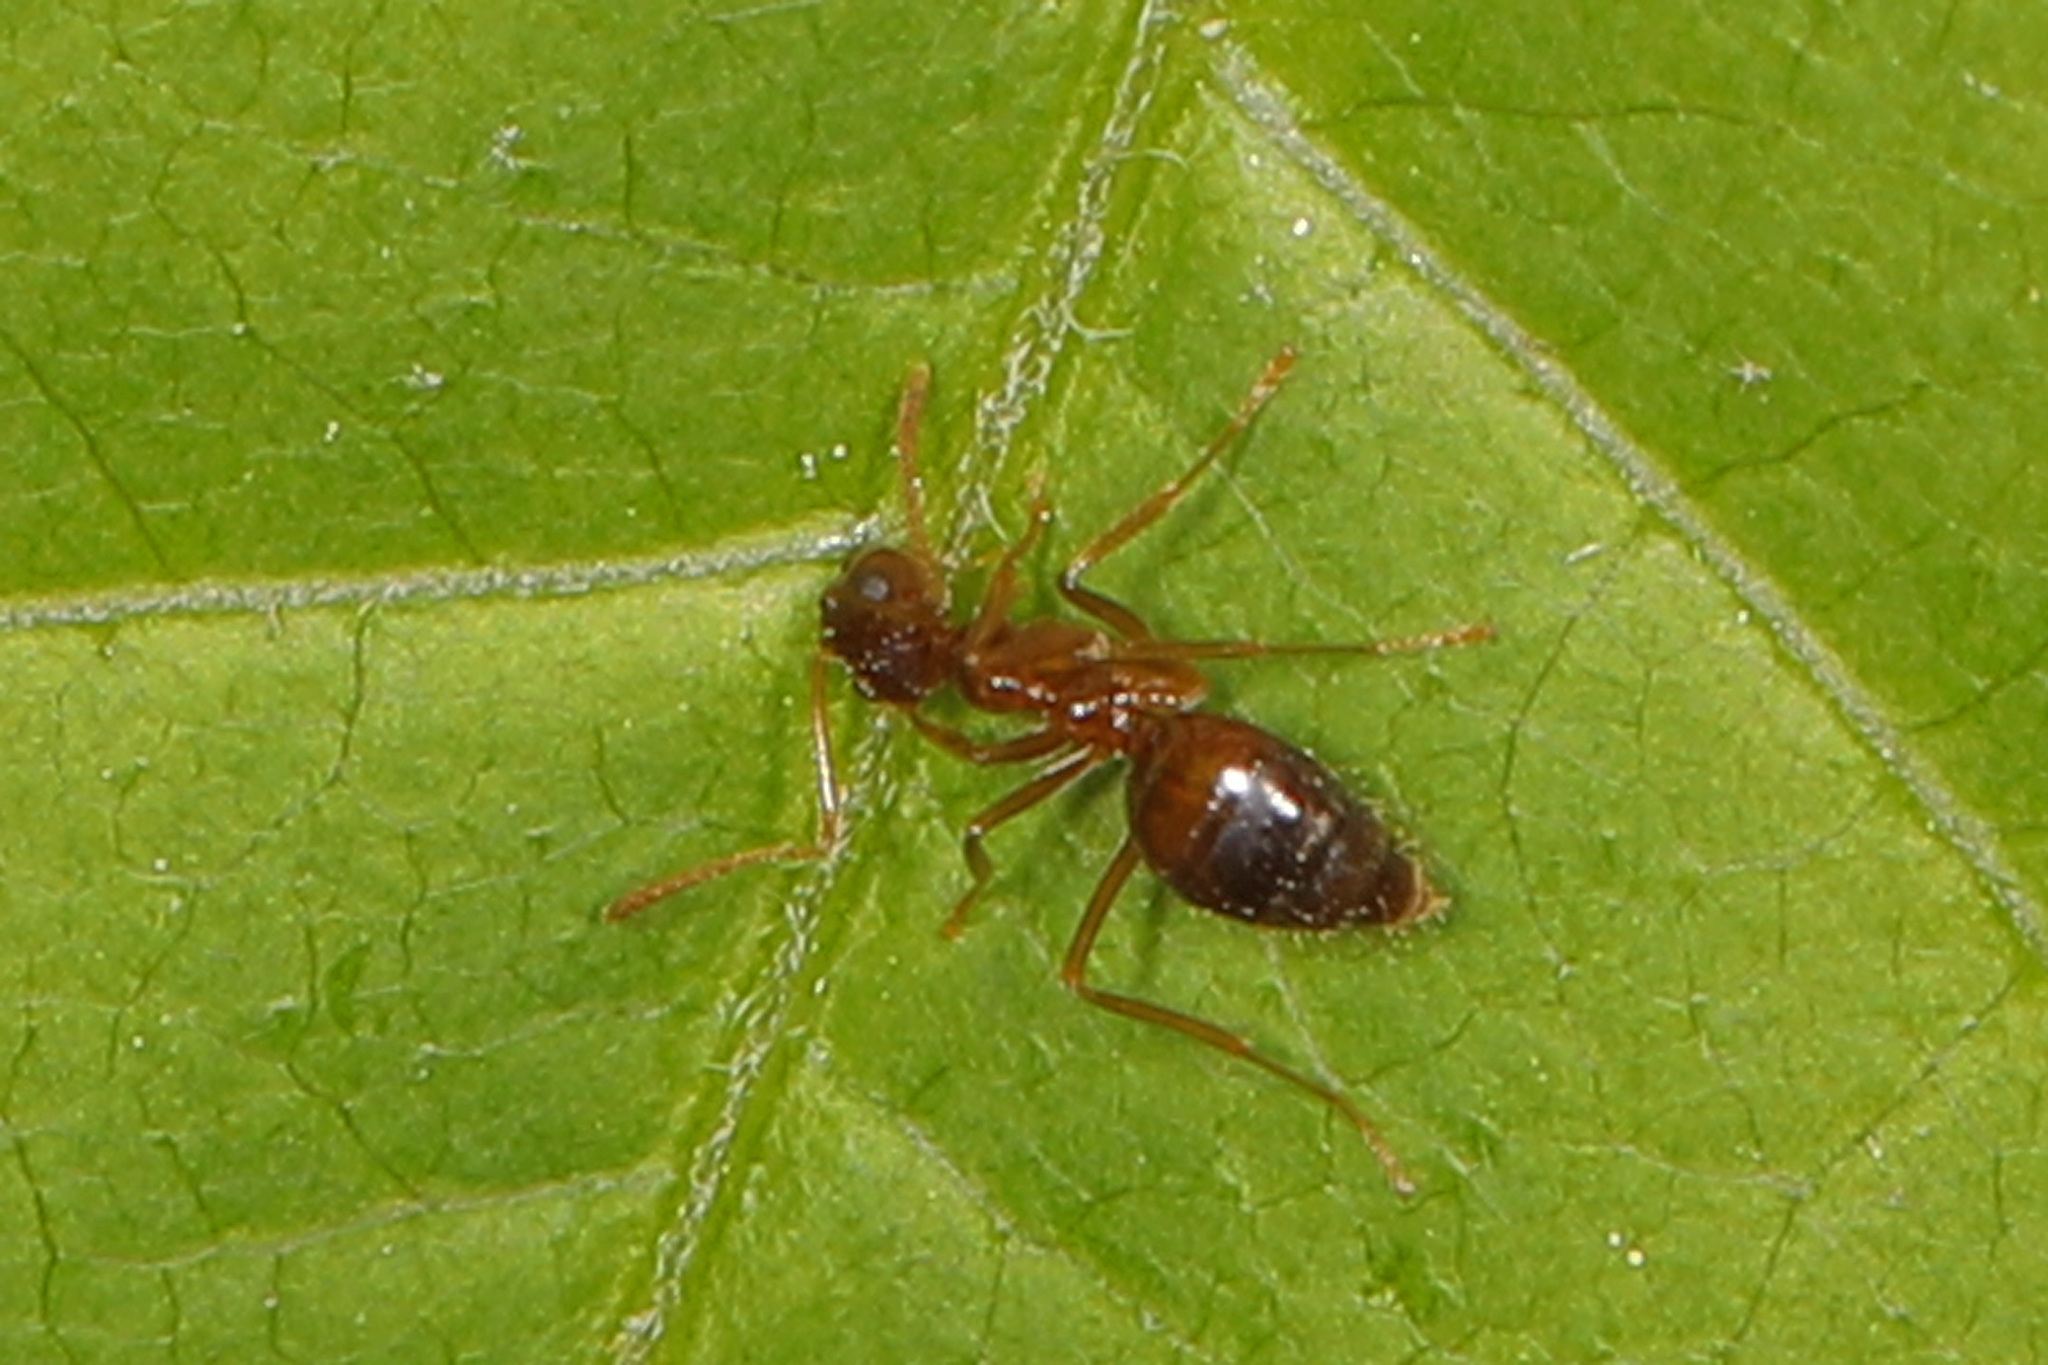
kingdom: Animalia
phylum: Arthropoda
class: Insecta
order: Hymenoptera
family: Formicidae
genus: Prenolepis
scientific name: Prenolepis imparis
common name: Small honey ant
